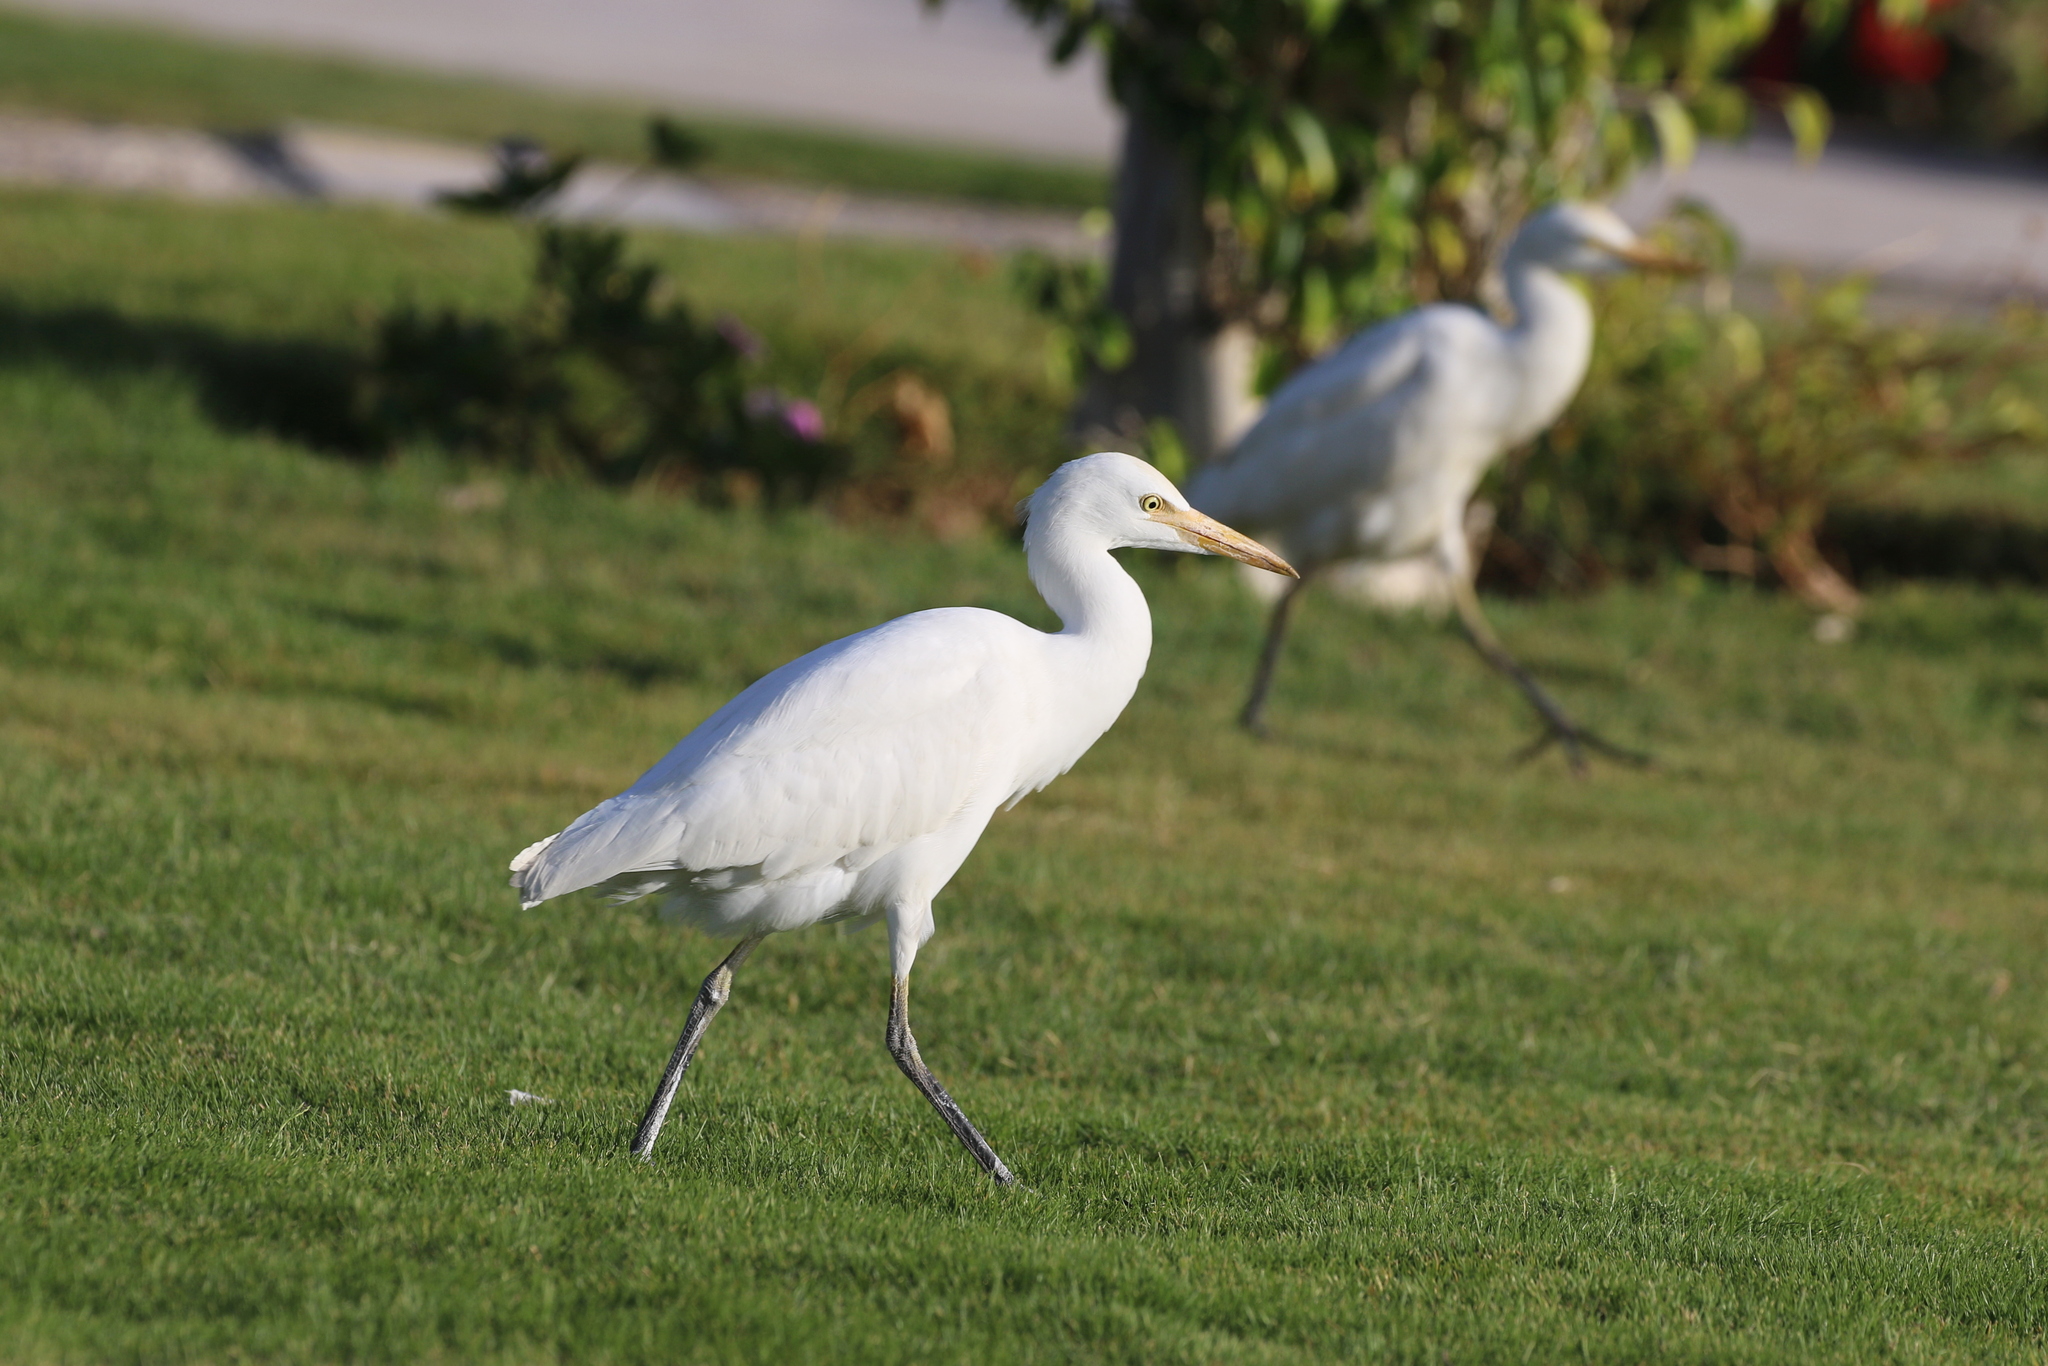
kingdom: Animalia
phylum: Chordata
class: Aves
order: Pelecaniformes
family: Ardeidae
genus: Bubulcus
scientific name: Bubulcus ibis
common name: Cattle egret
